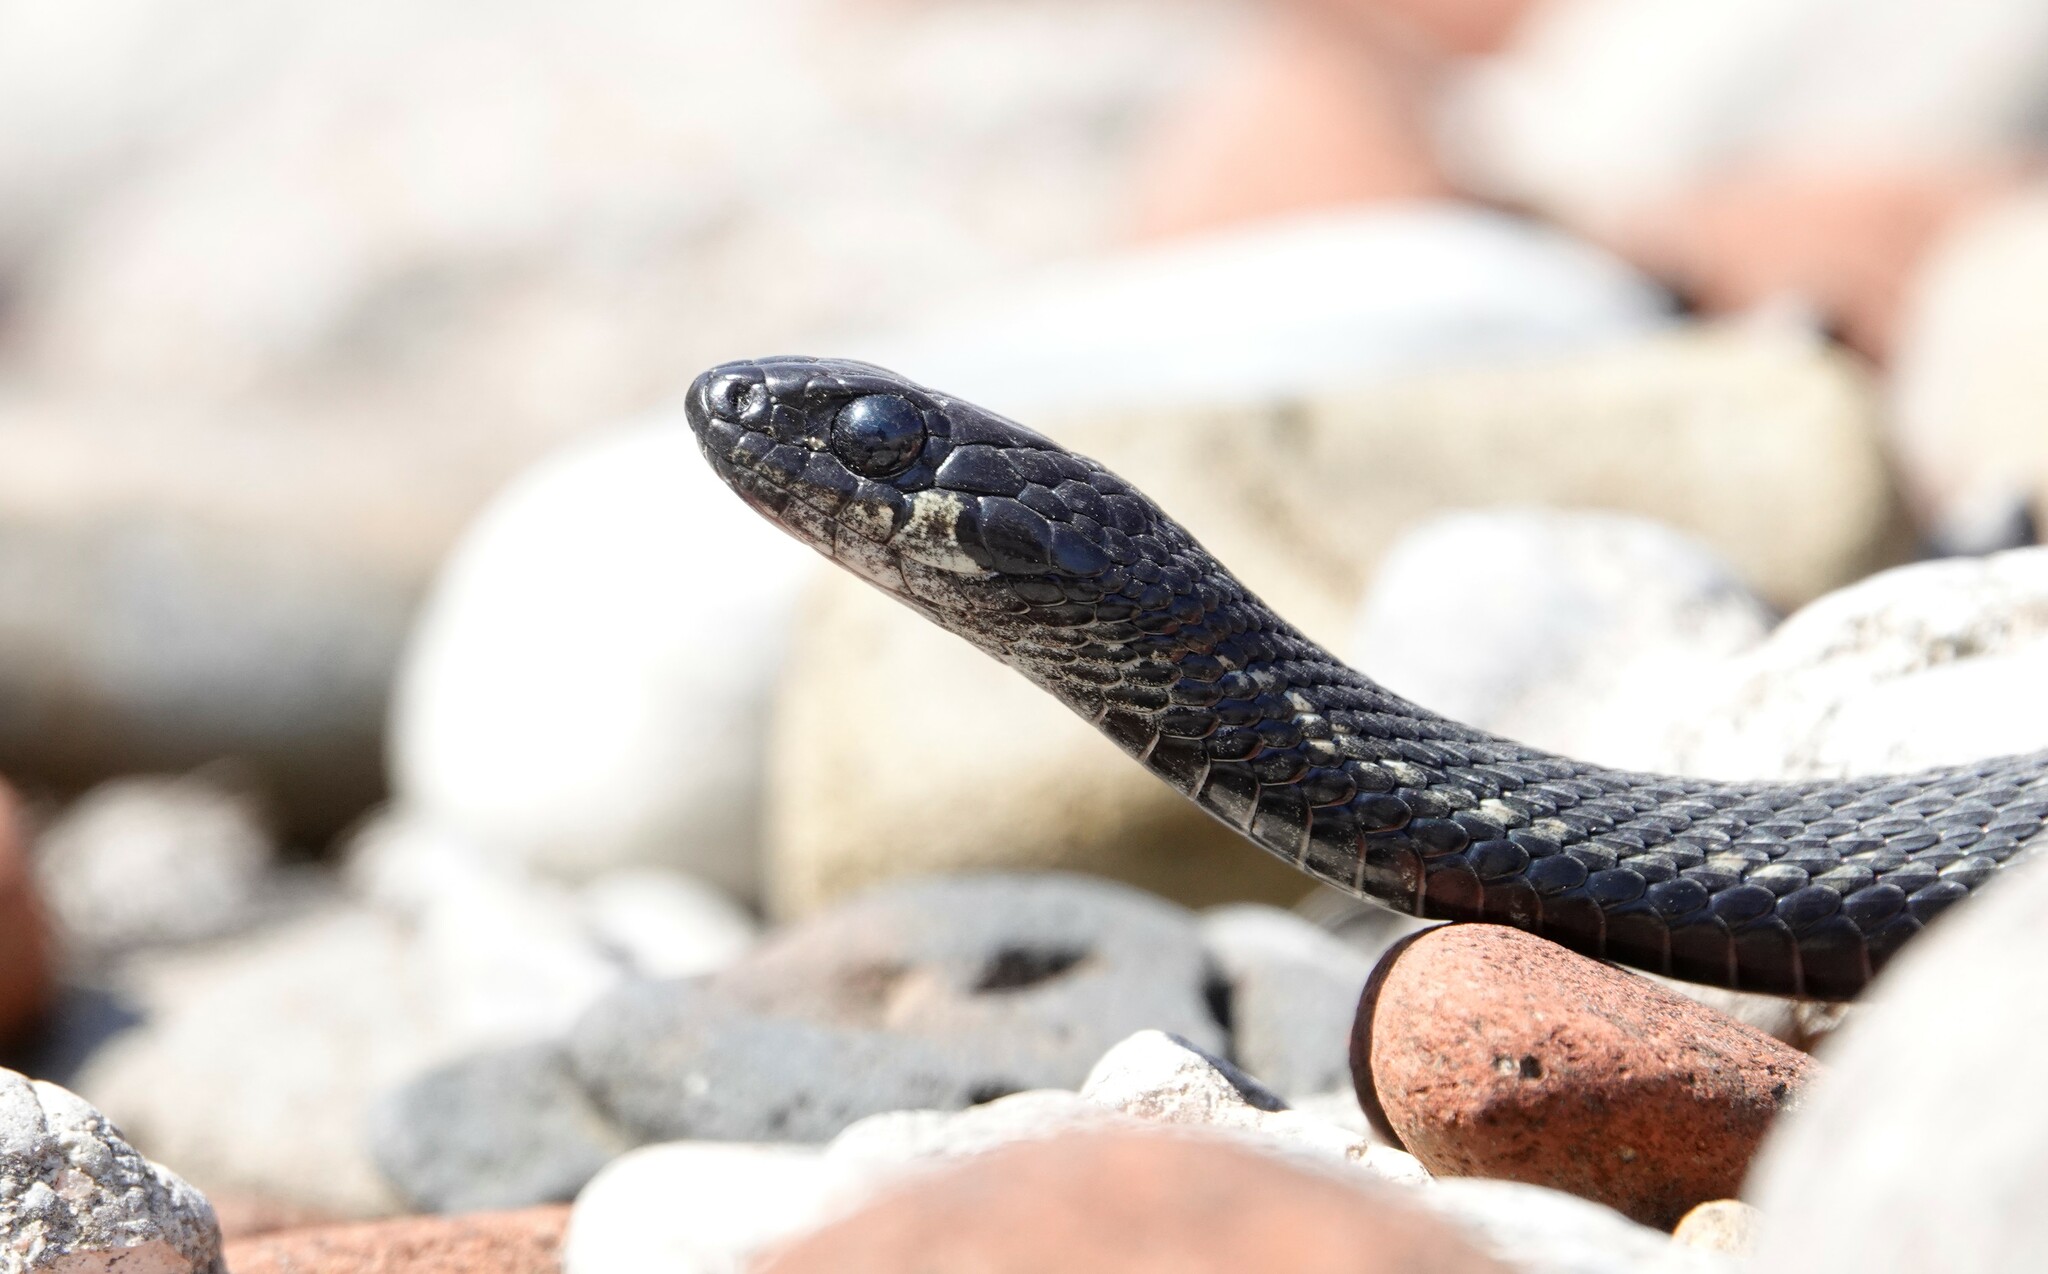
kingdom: Animalia
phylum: Chordata
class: Squamata
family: Colubridae
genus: Thamnophis
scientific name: Thamnophis sirtalis
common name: Common garter snake
